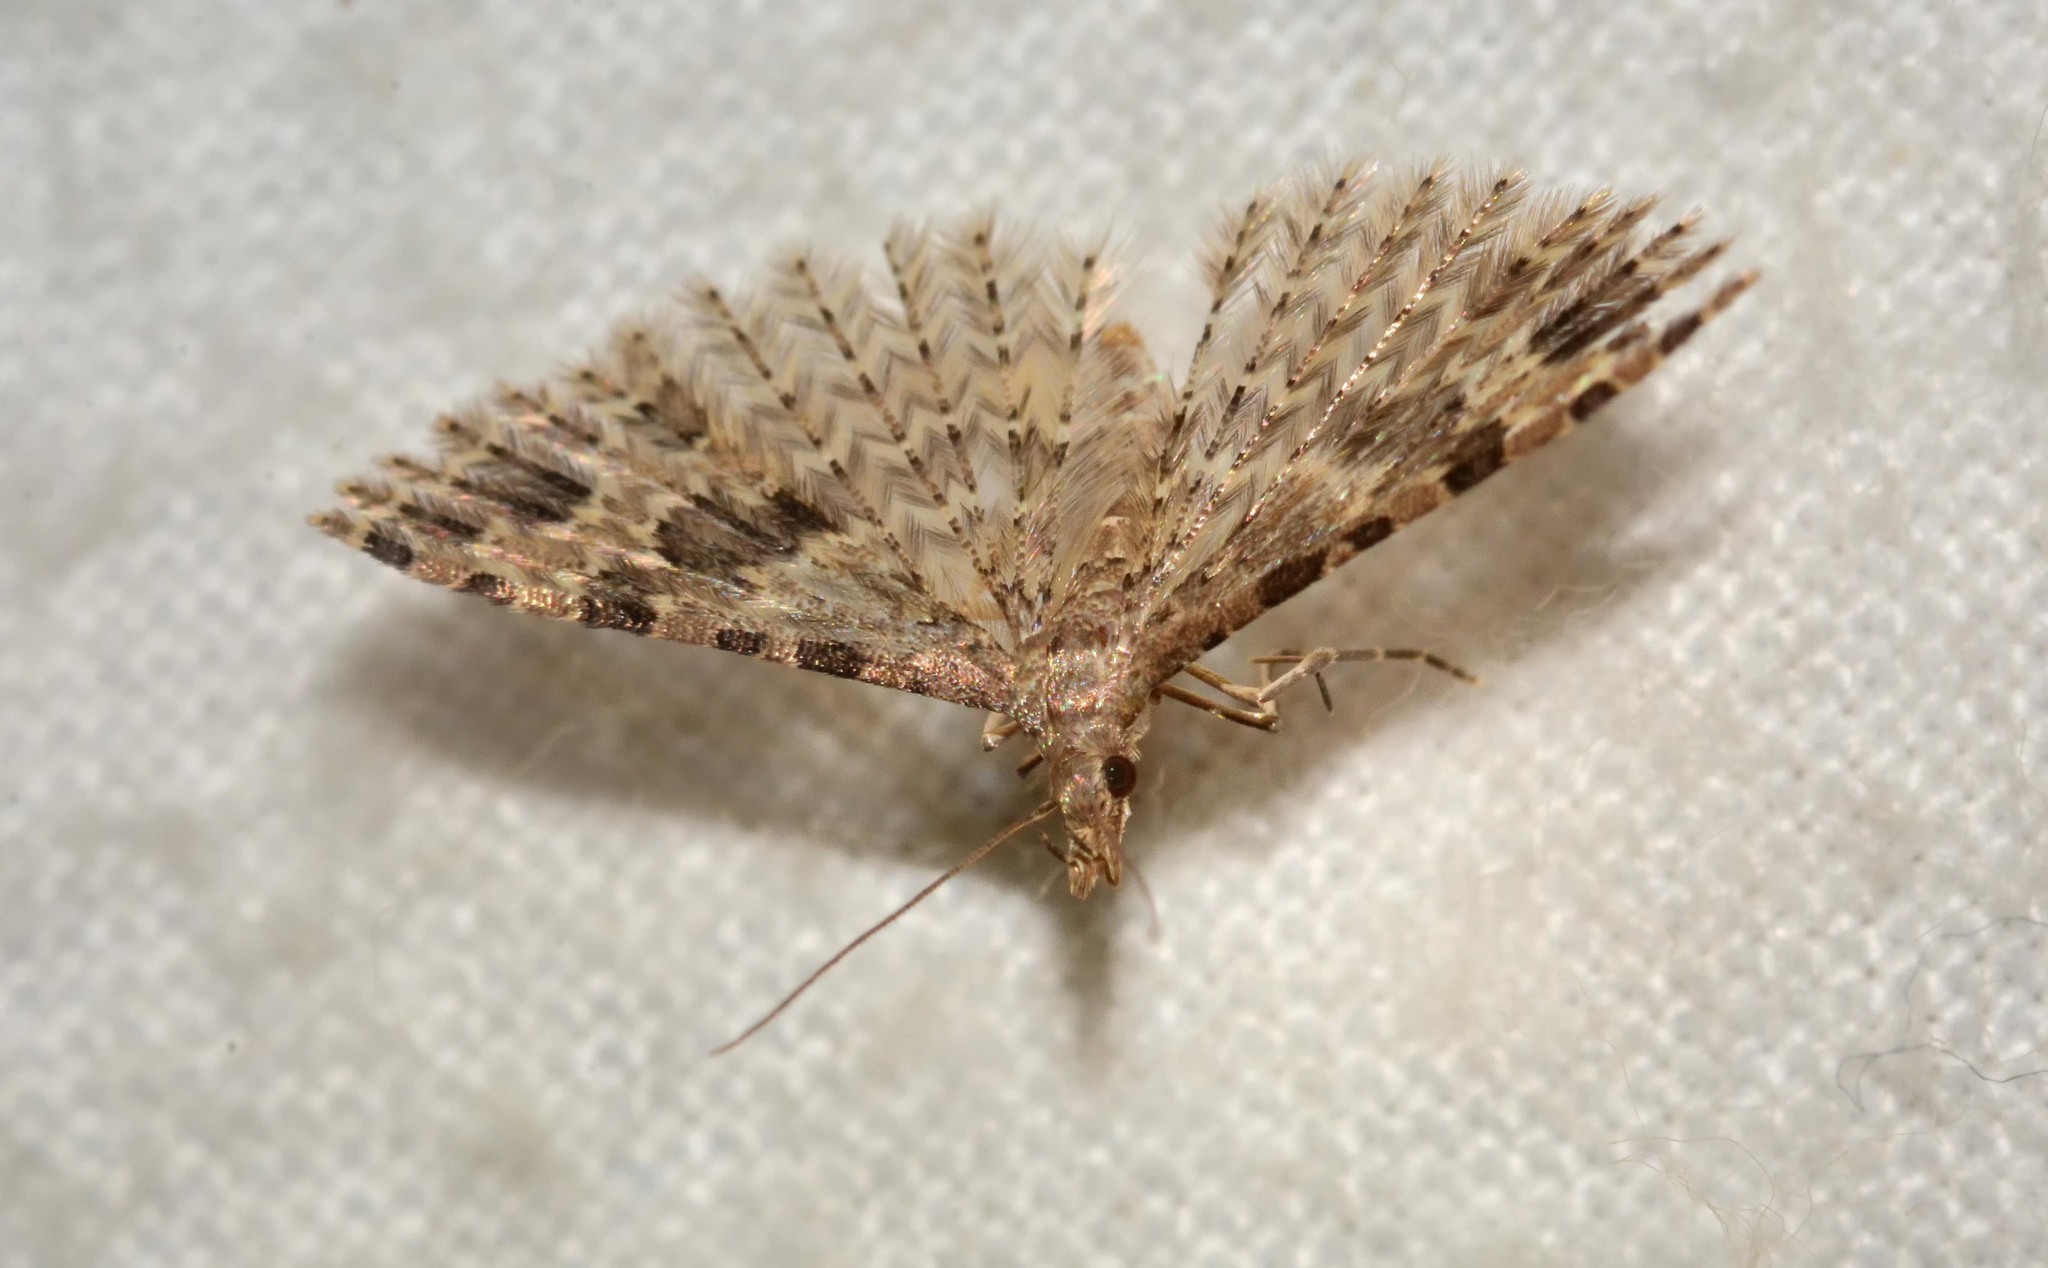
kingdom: Animalia
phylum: Arthropoda
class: Insecta
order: Lepidoptera
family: Alucitidae
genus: Alucita
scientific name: Alucita hexadactyla
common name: Twenty-plume moth
